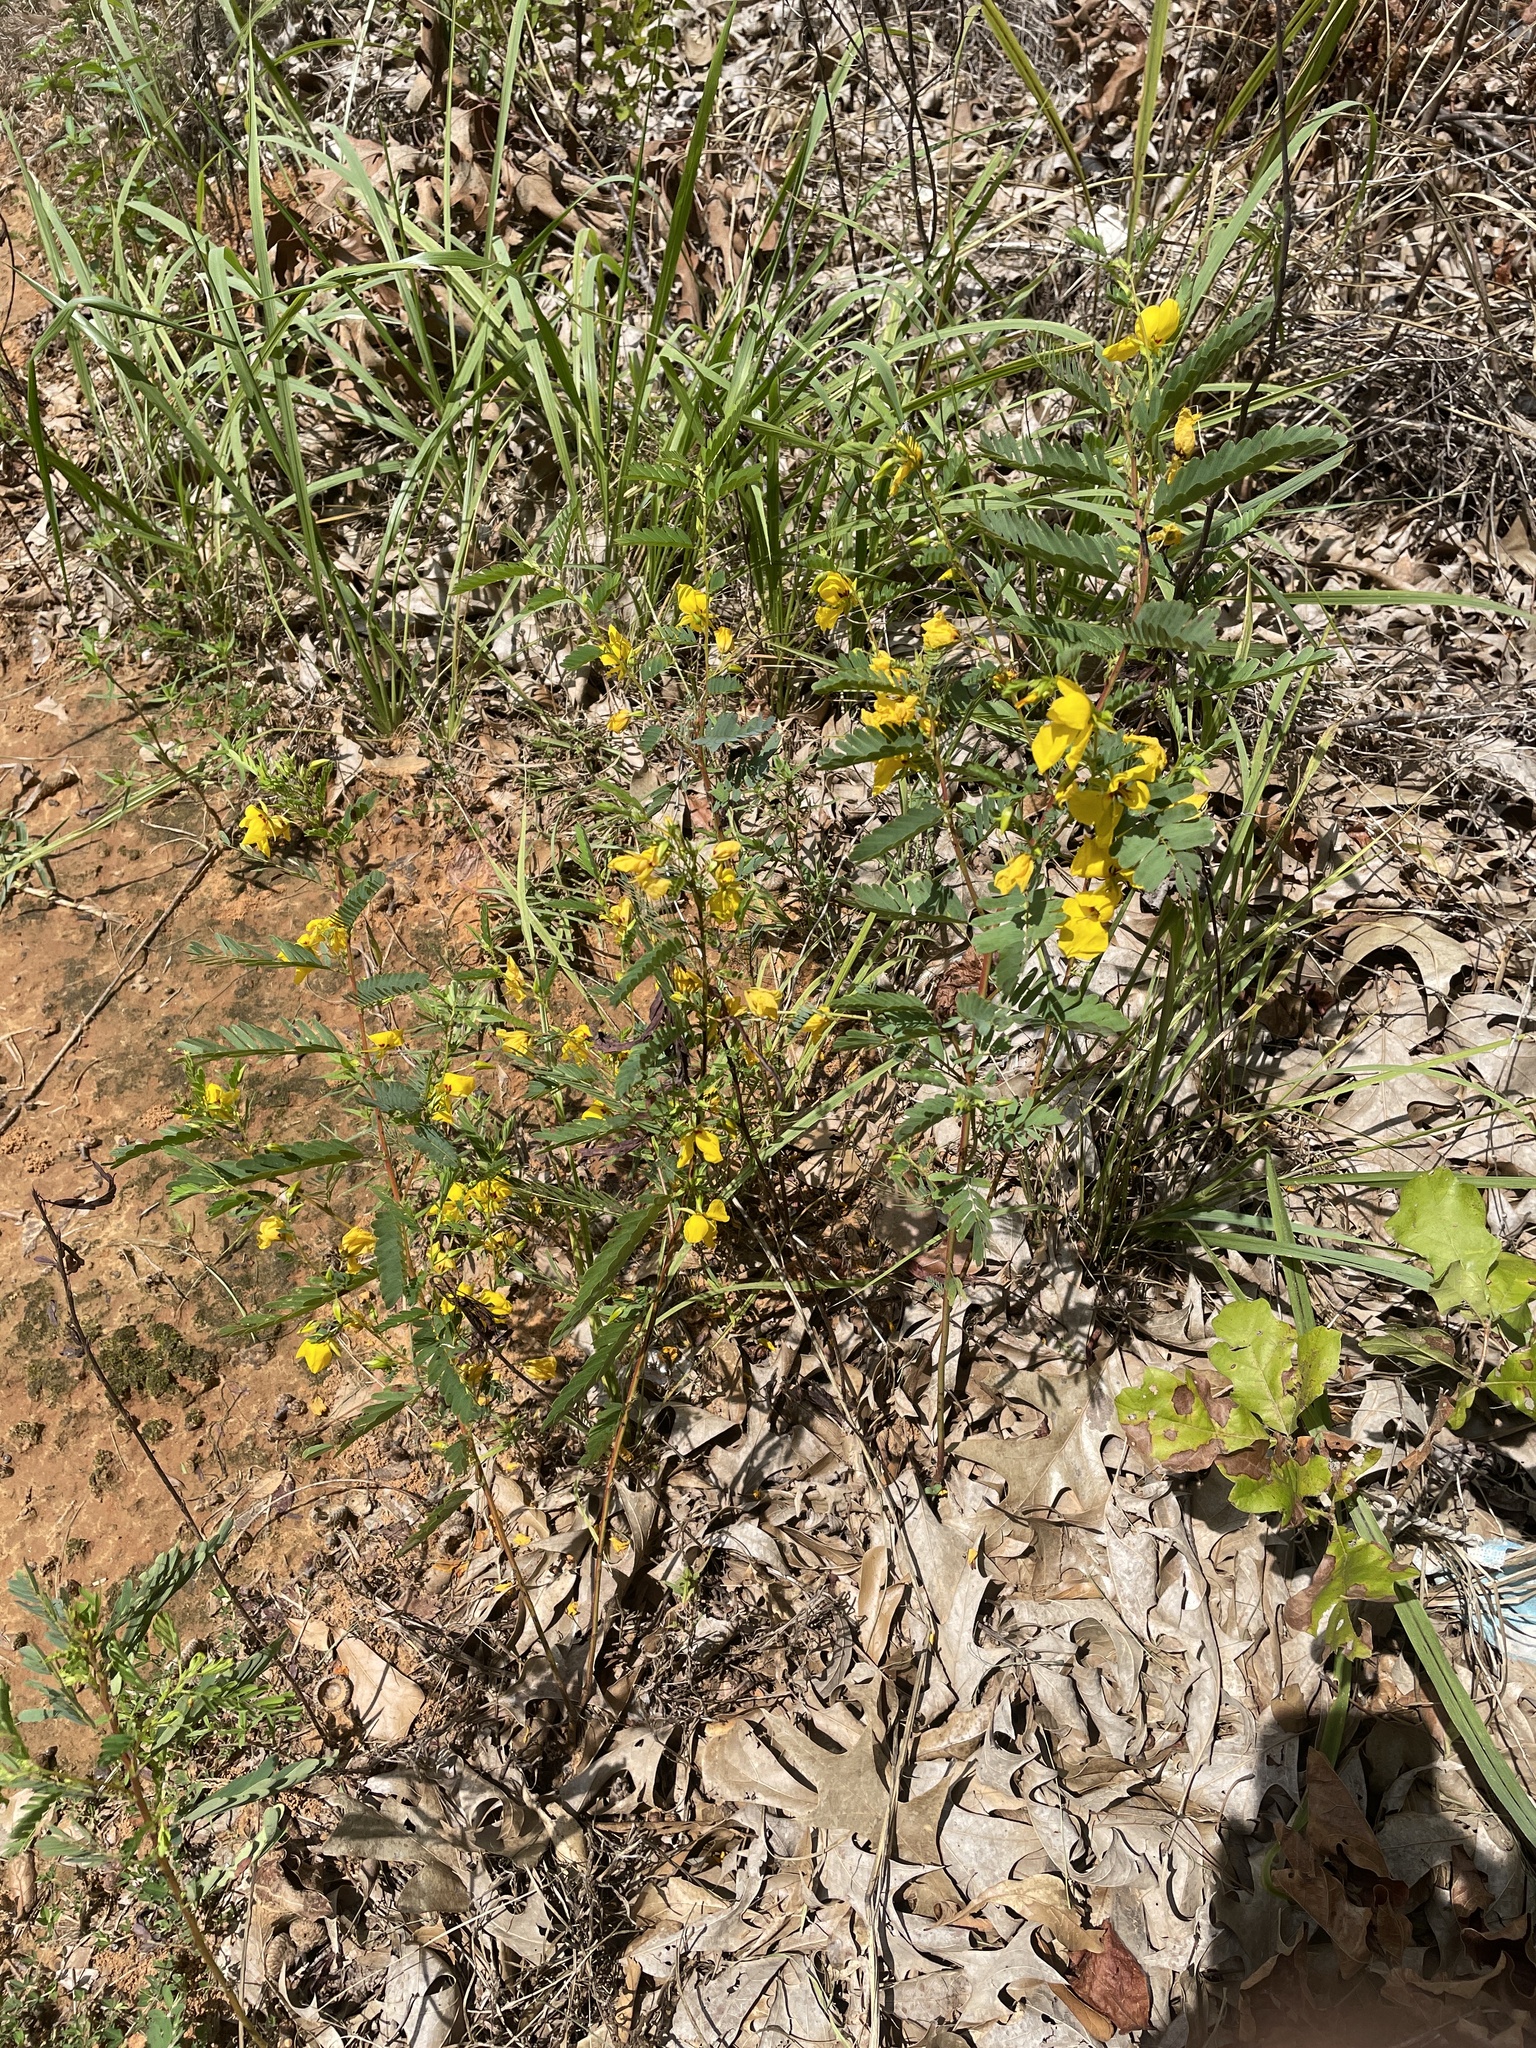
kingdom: Plantae
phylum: Tracheophyta
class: Magnoliopsida
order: Fabales
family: Fabaceae
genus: Chamaecrista
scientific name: Chamaecrista fasciculata
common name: Golden cassia
